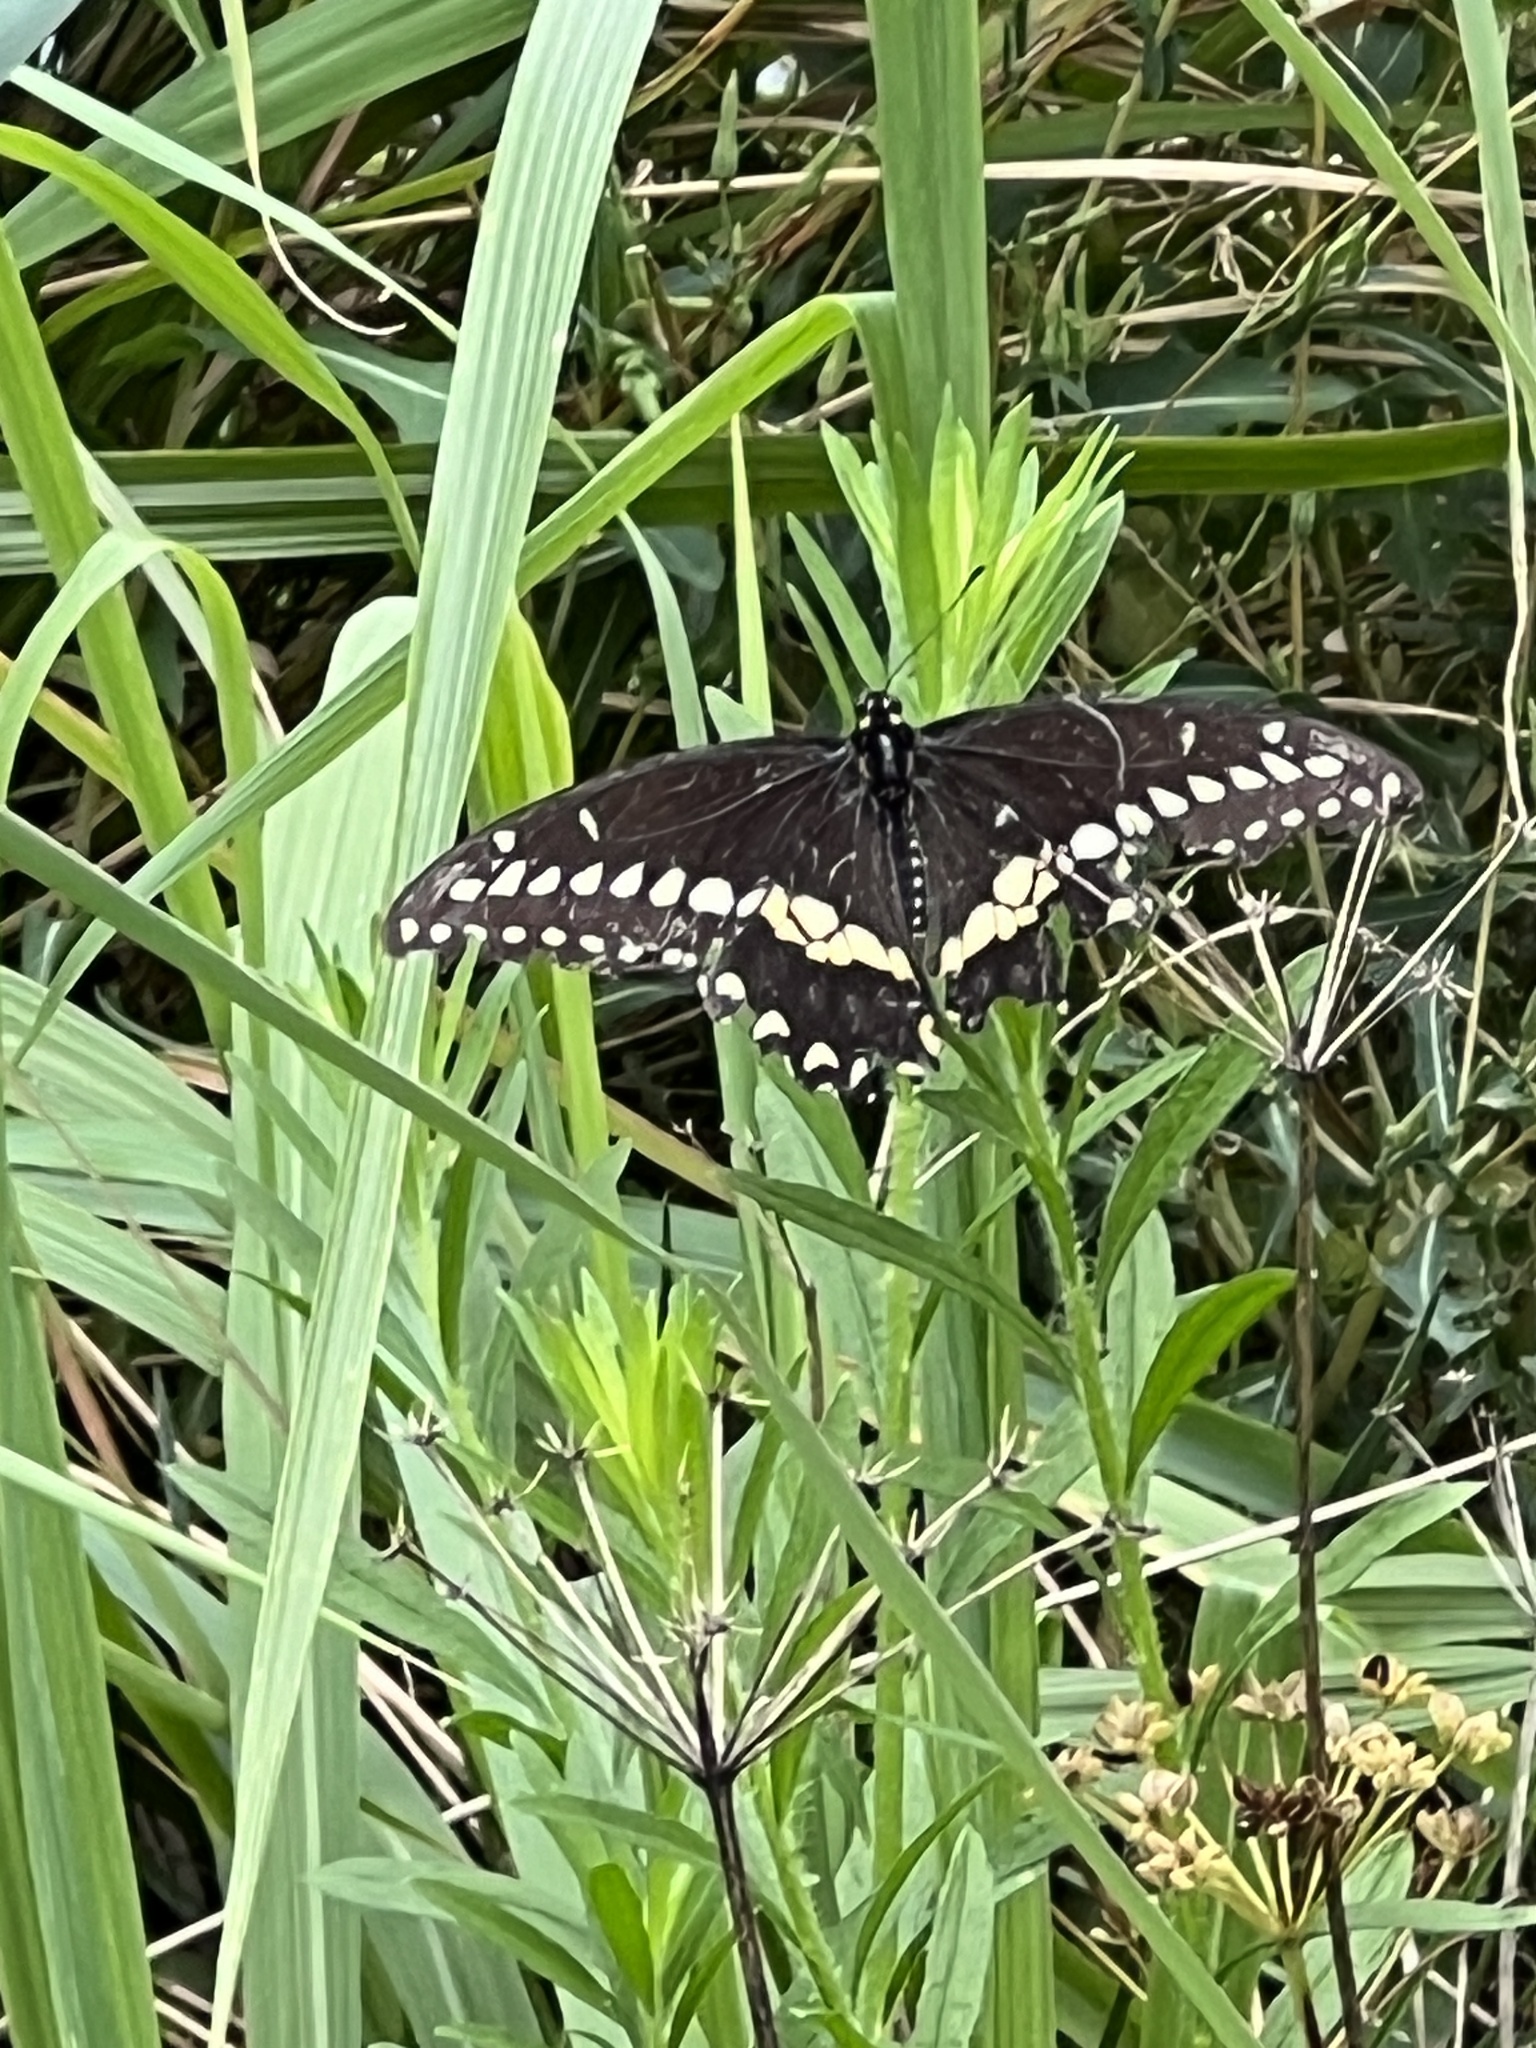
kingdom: Animalia
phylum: Arthropoda
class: Insecta
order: Lepidoptera
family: Papilionidae
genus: Papilio
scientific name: Papilio polyxenes
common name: Black swallowtail
